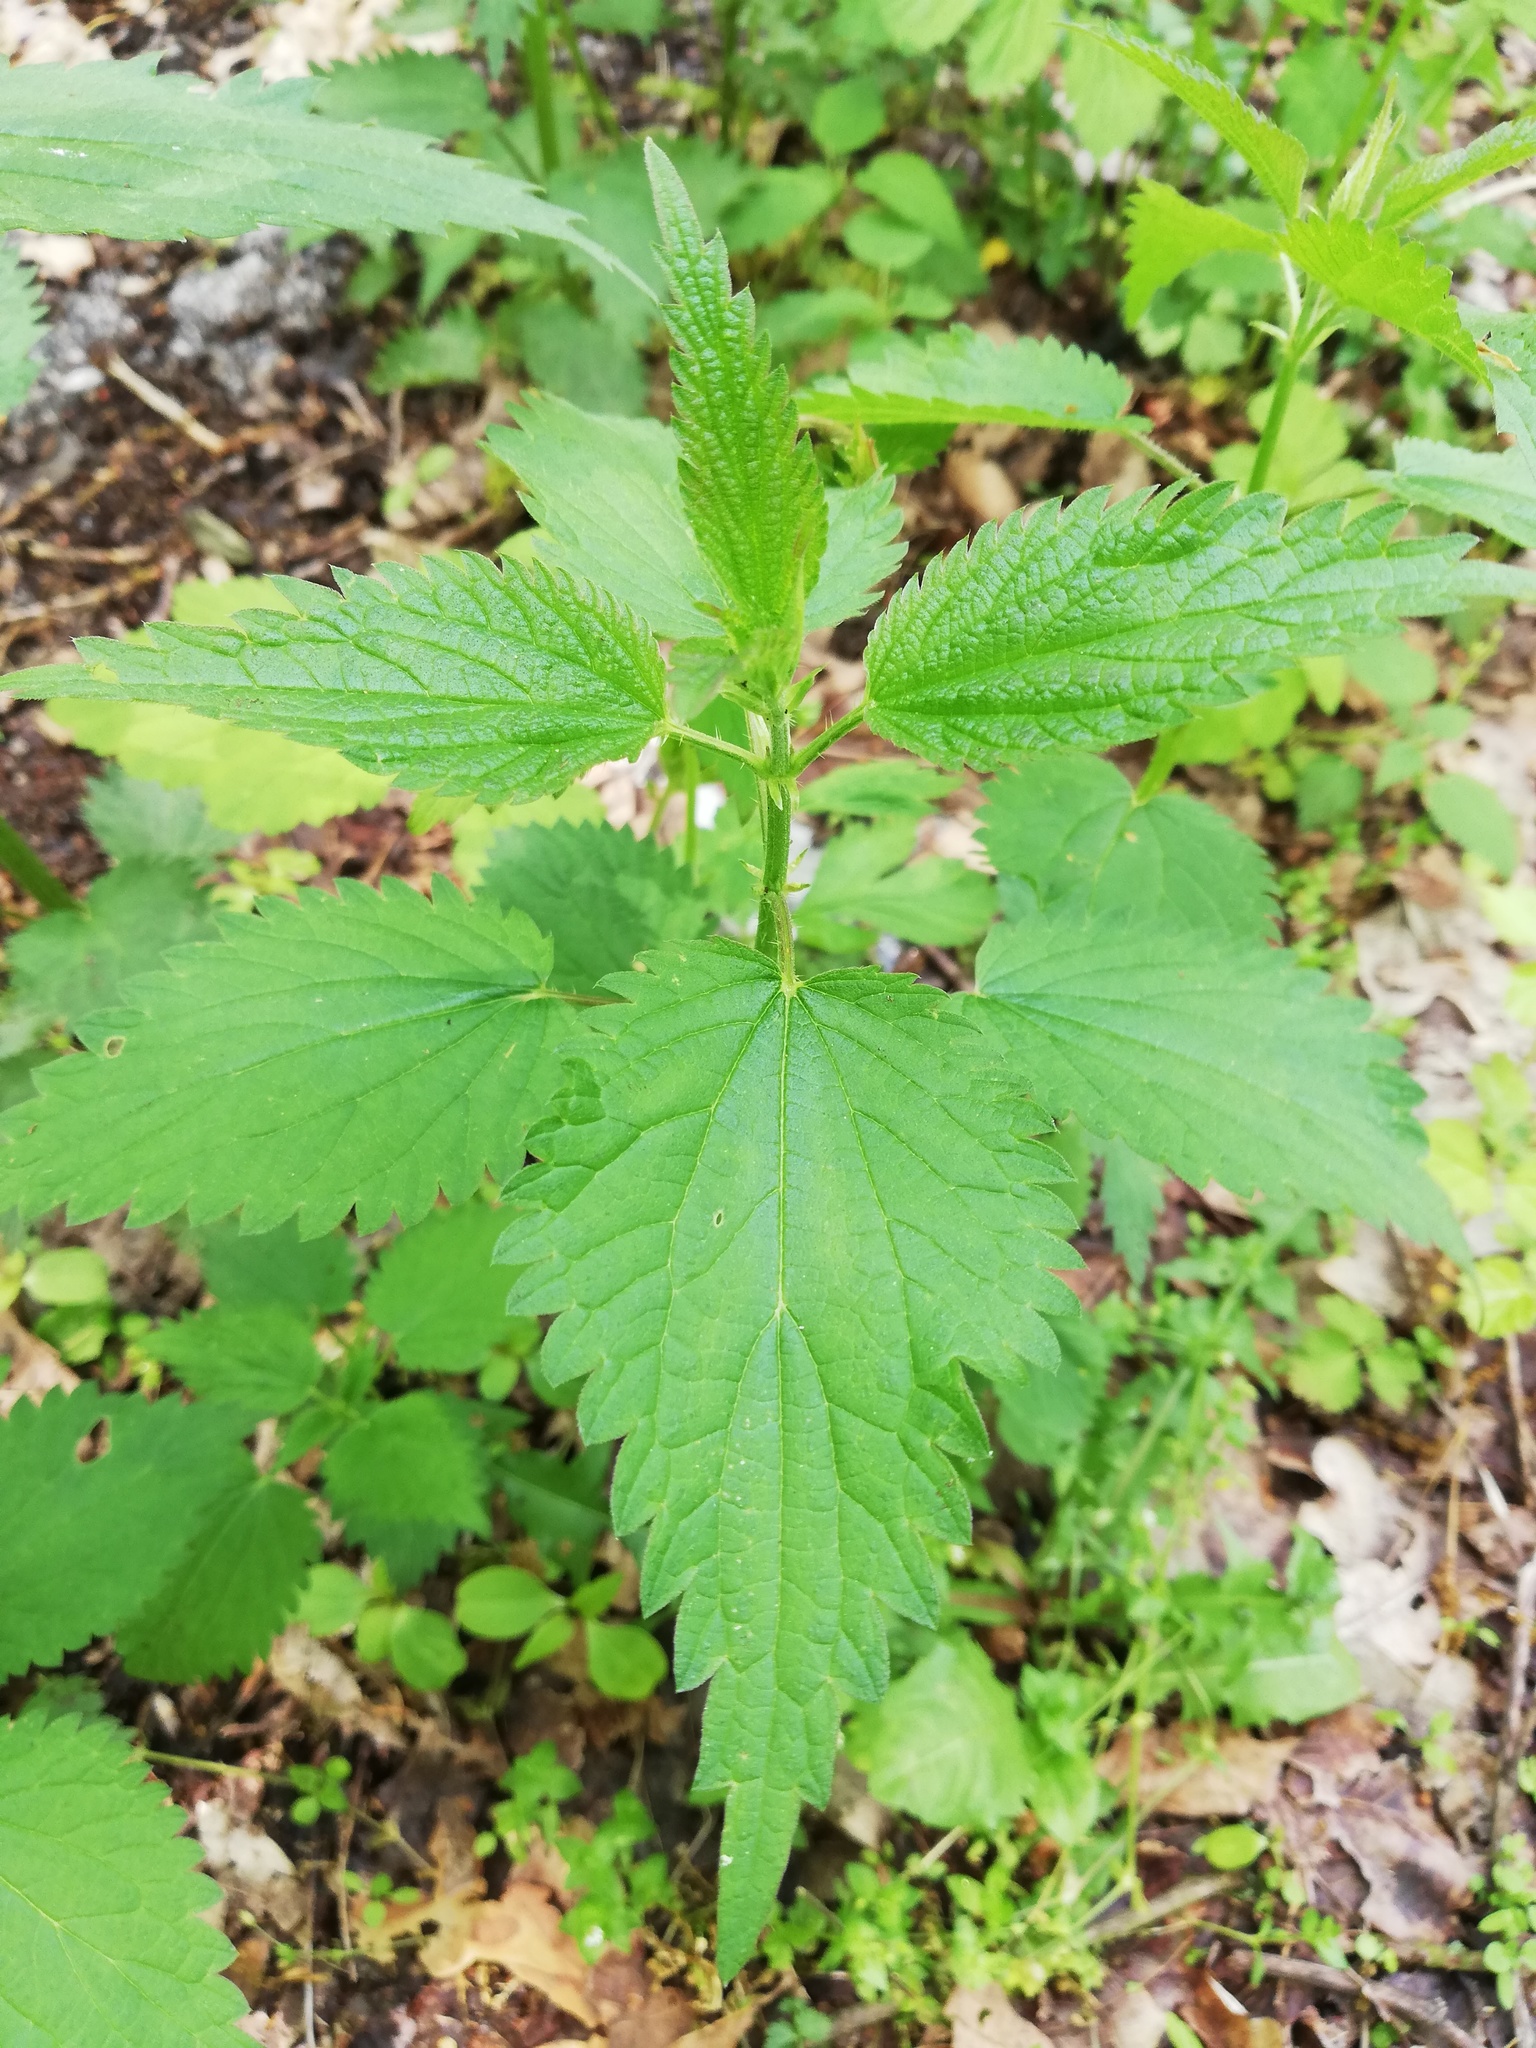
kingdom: Plantae
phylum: Tracheophyta
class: Magnoliopsida
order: Rosales
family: Urticaceae
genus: Urtica
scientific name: Urtica dioica
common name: Common nettle
